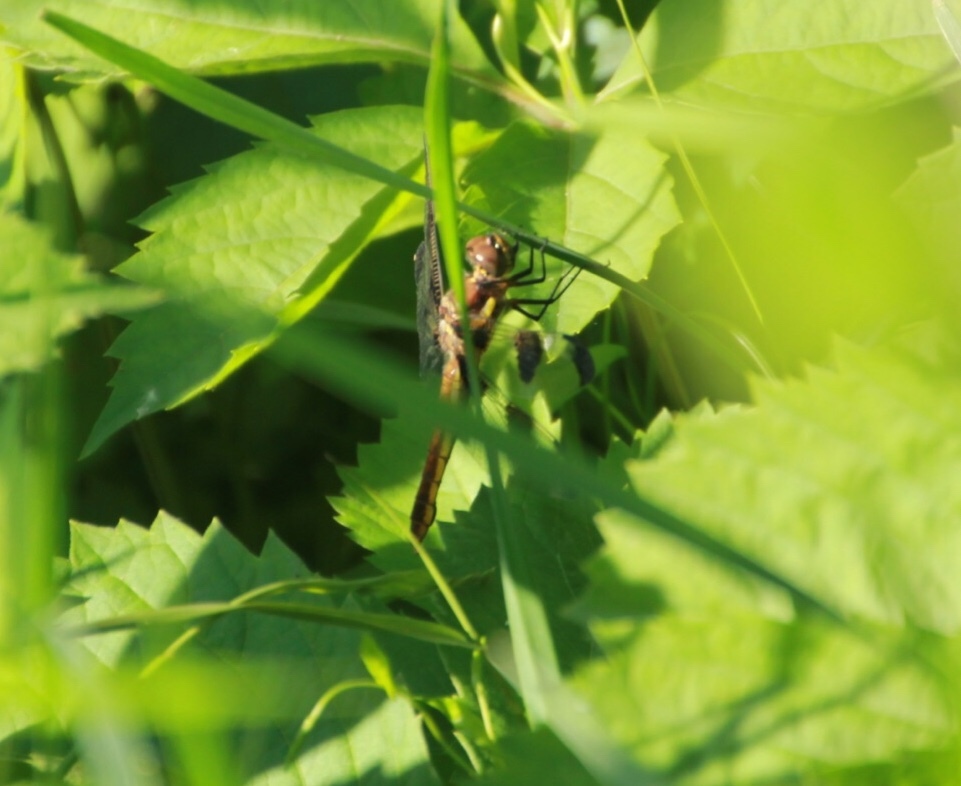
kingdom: Animalia
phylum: Arthropoda
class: Insecta
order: Odonata
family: Libellulidae
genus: Libellula
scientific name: Libellula pulchella
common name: Twelve-spotted skimmer
